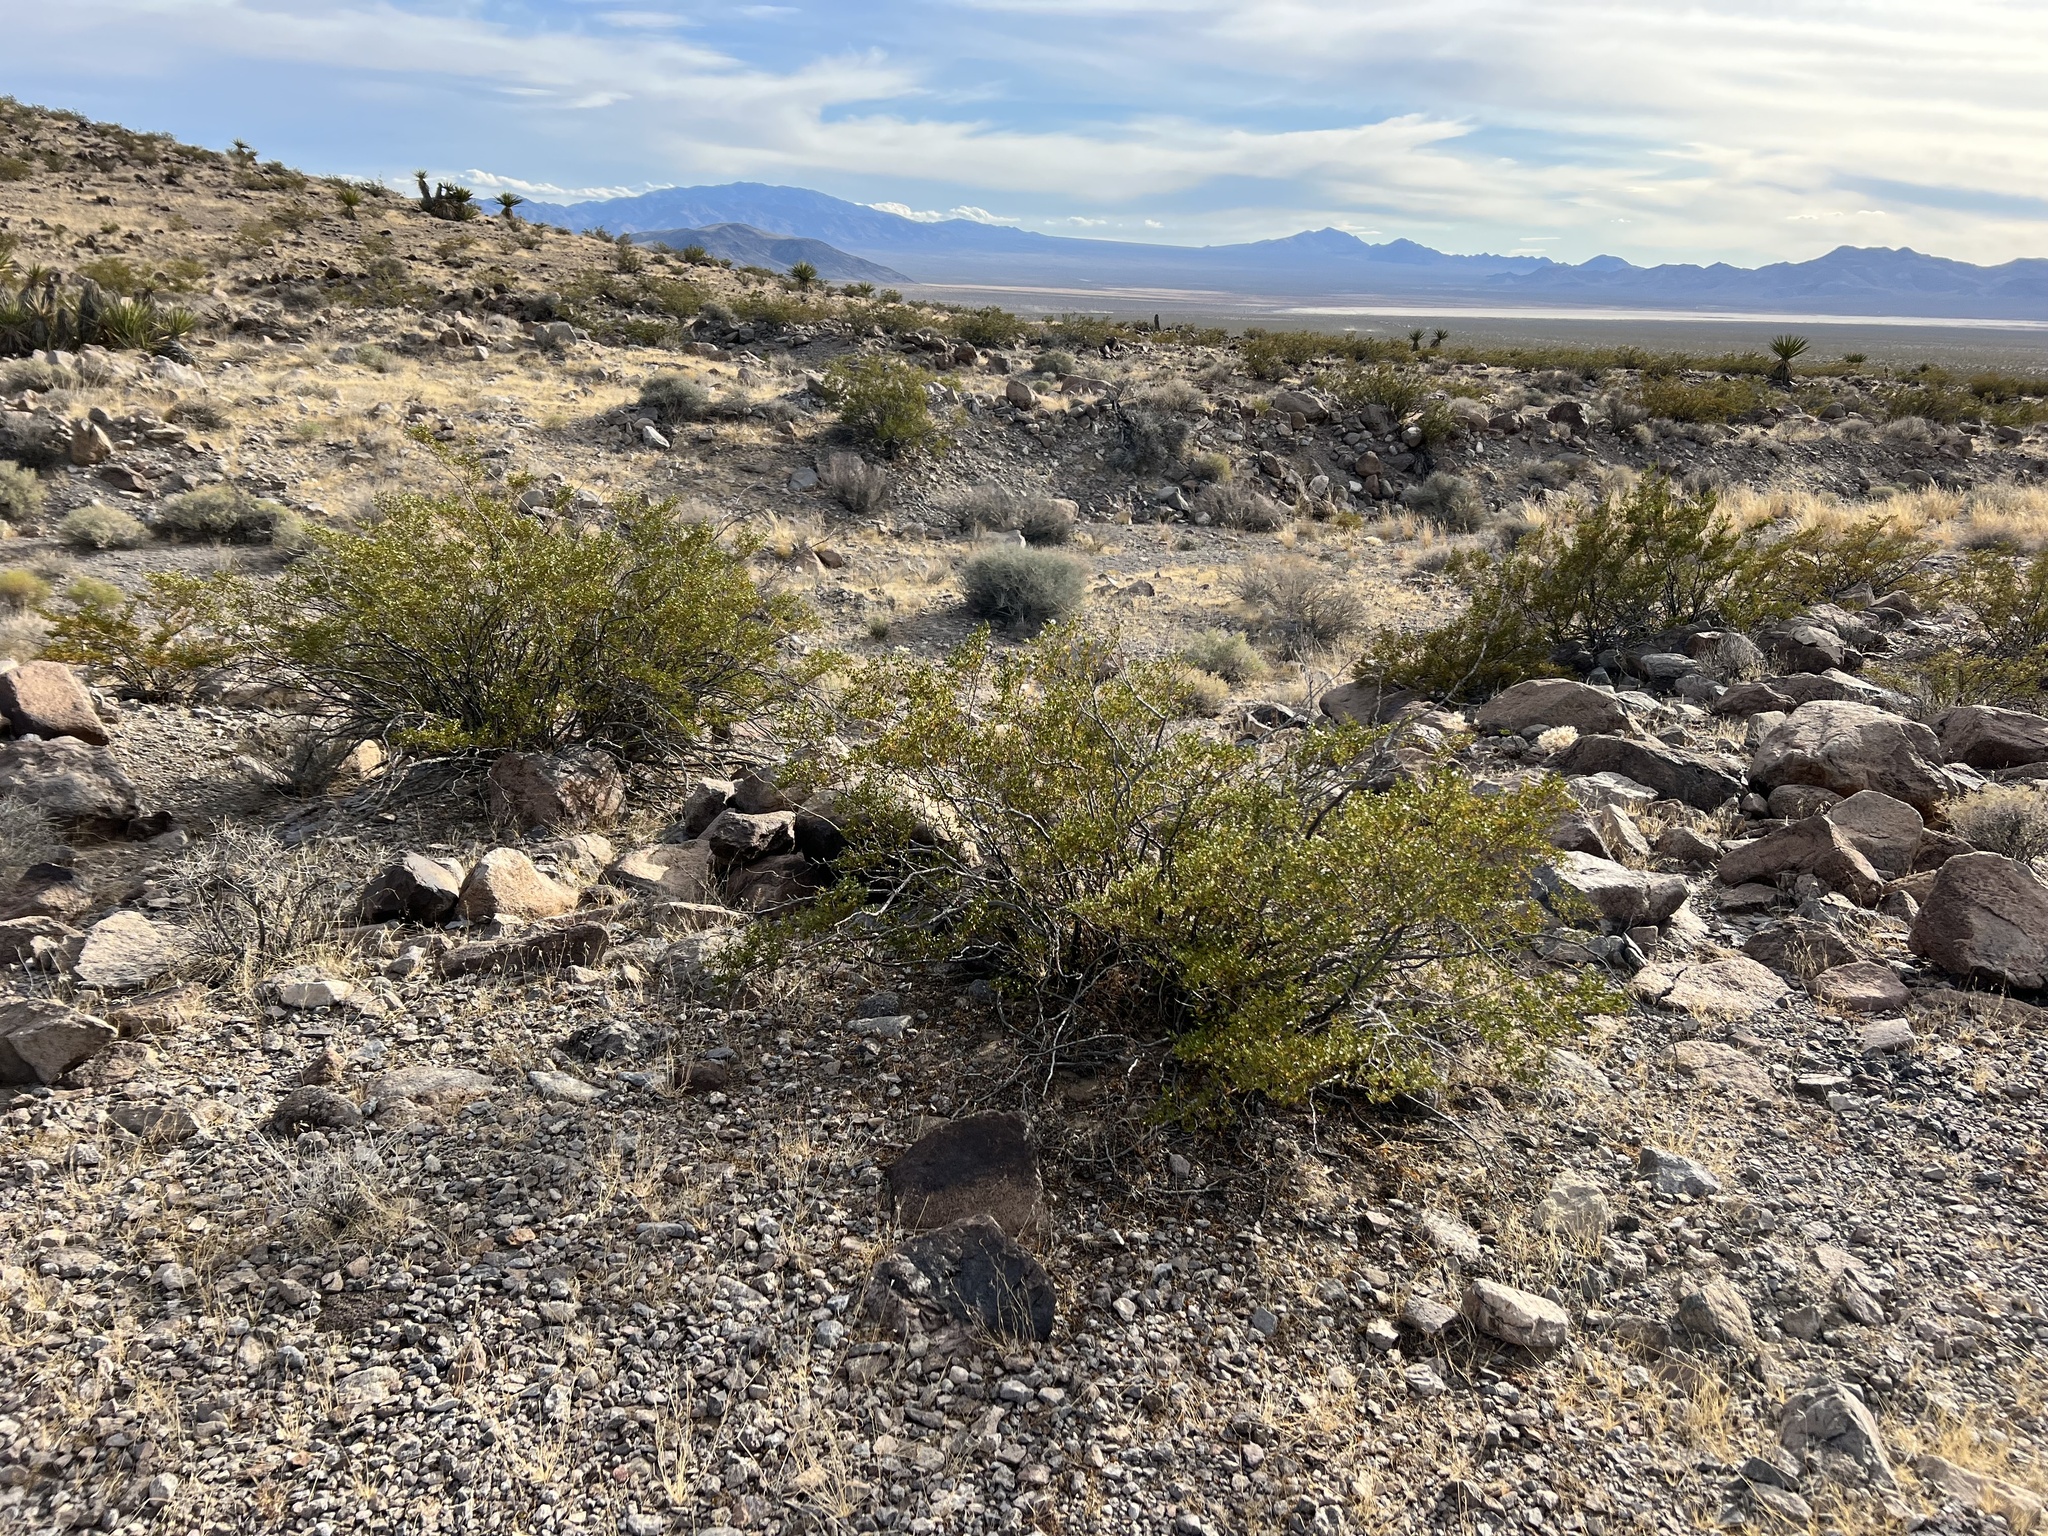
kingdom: Plantae
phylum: Tracheophyta
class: Magnoliopsida
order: Zygophyllales
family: Zygophyllaceae
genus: Larrea
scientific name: Larrea tridentata
